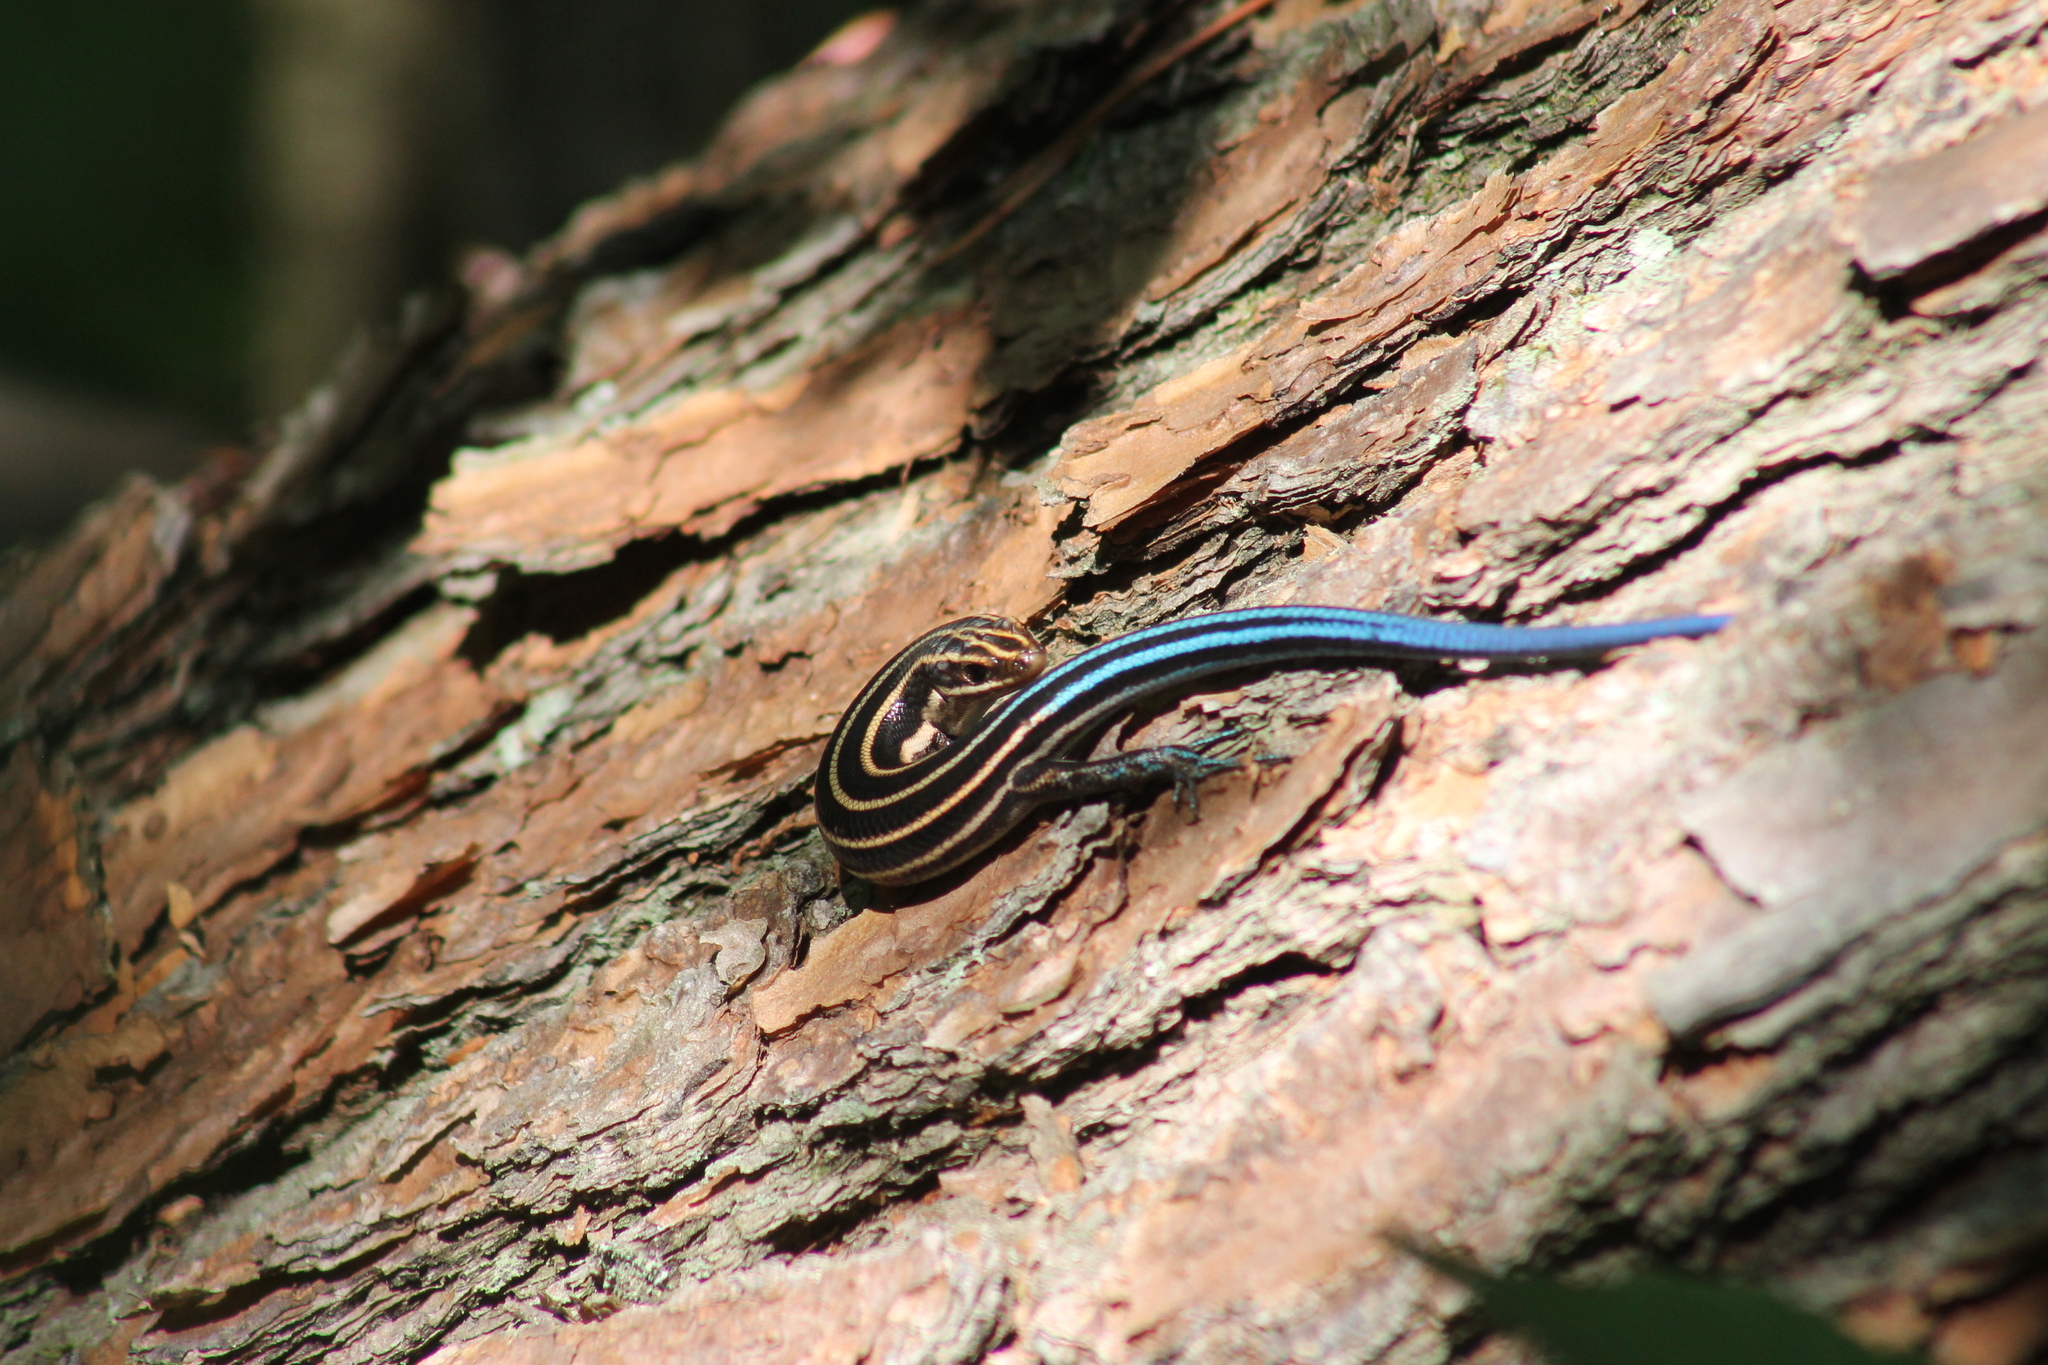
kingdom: Animalia
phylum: Chordata
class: Squamata
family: Scincidae
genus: Plestiodon
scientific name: Plestiodon fasciatus
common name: Five-lined skink
